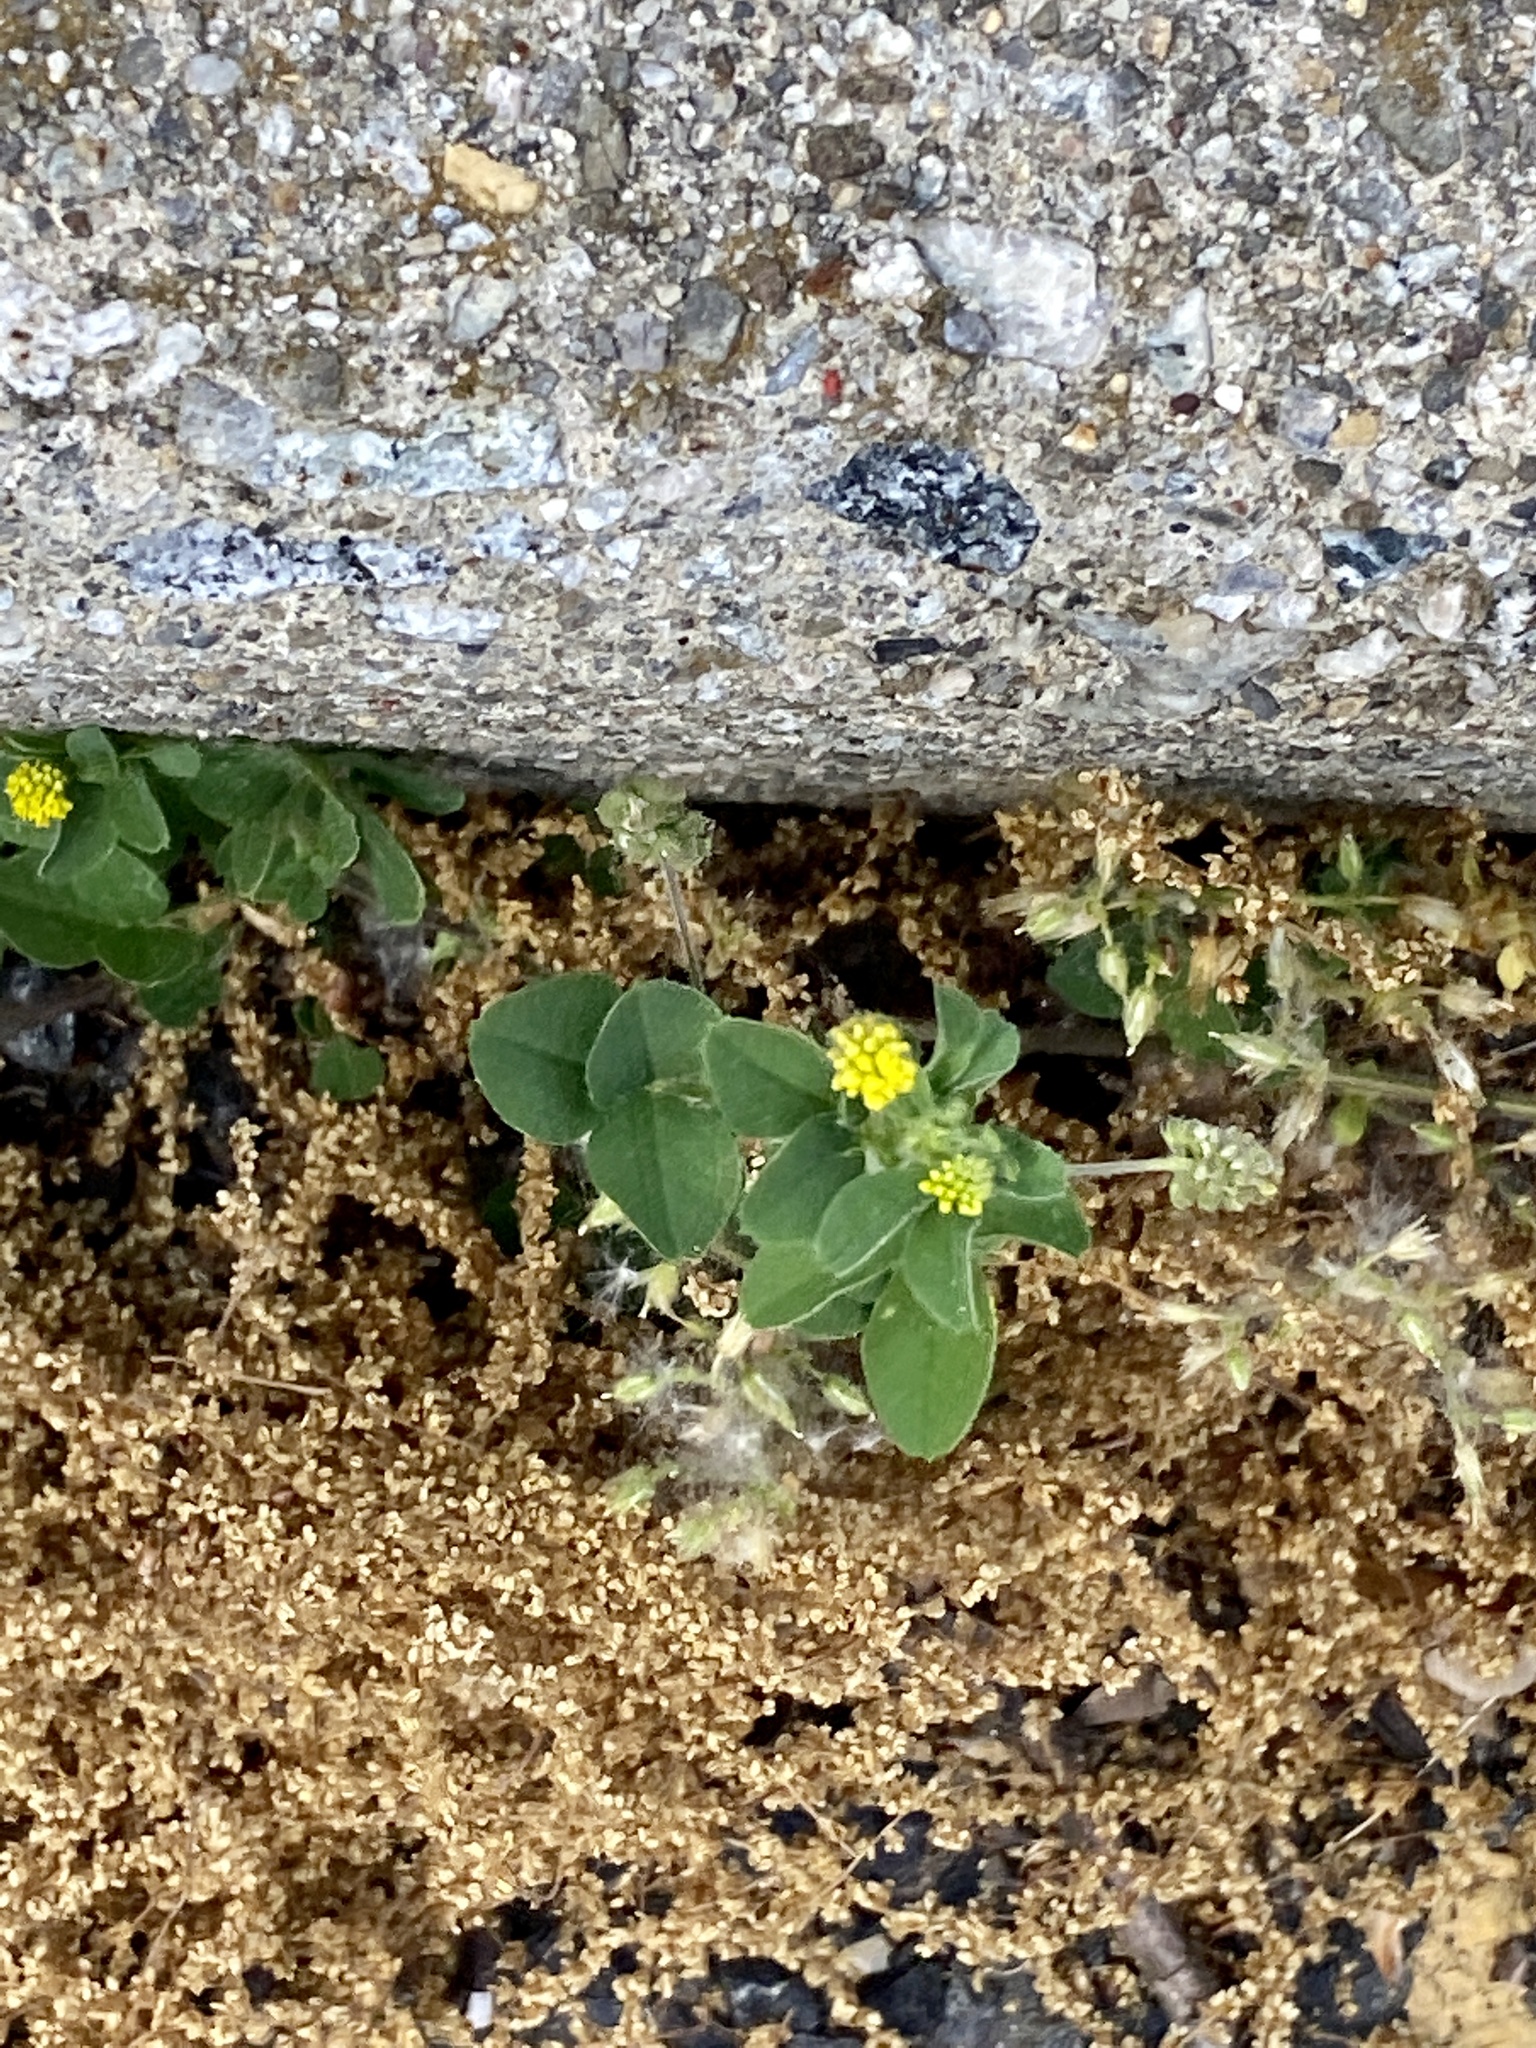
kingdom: Plantae
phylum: Tracheophyta
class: Magnoliopsida
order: Fabales
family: Fabaceae
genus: Medicago
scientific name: Medicago lupulina
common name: Black medick
